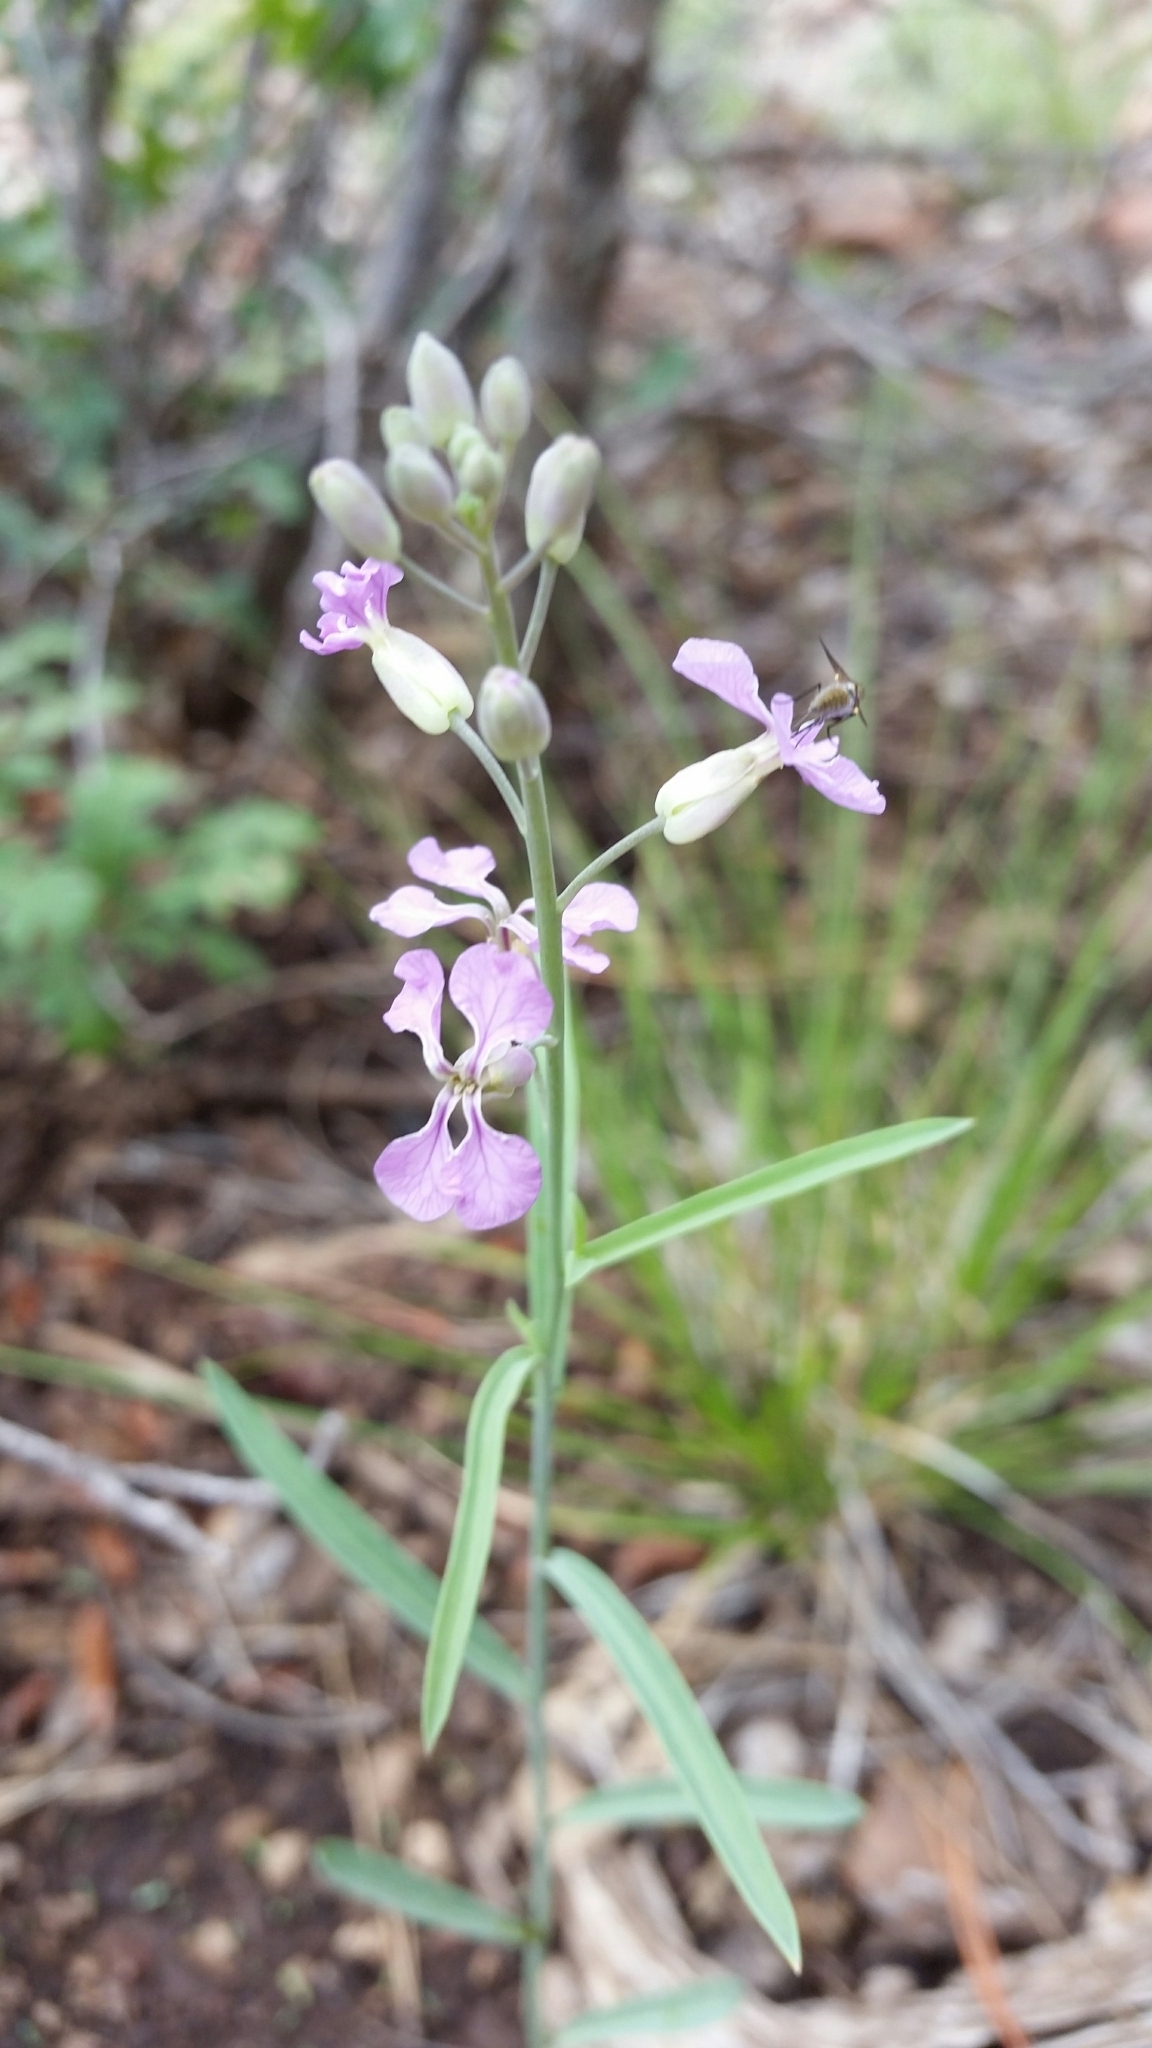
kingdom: Plantae
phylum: Tracheophyta
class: Magnoliopsida
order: Brassicales
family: Brassicaceae
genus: Hesperidanthus
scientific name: Hesperidanthus linearifolius
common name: Slim-leaf plains mustard
